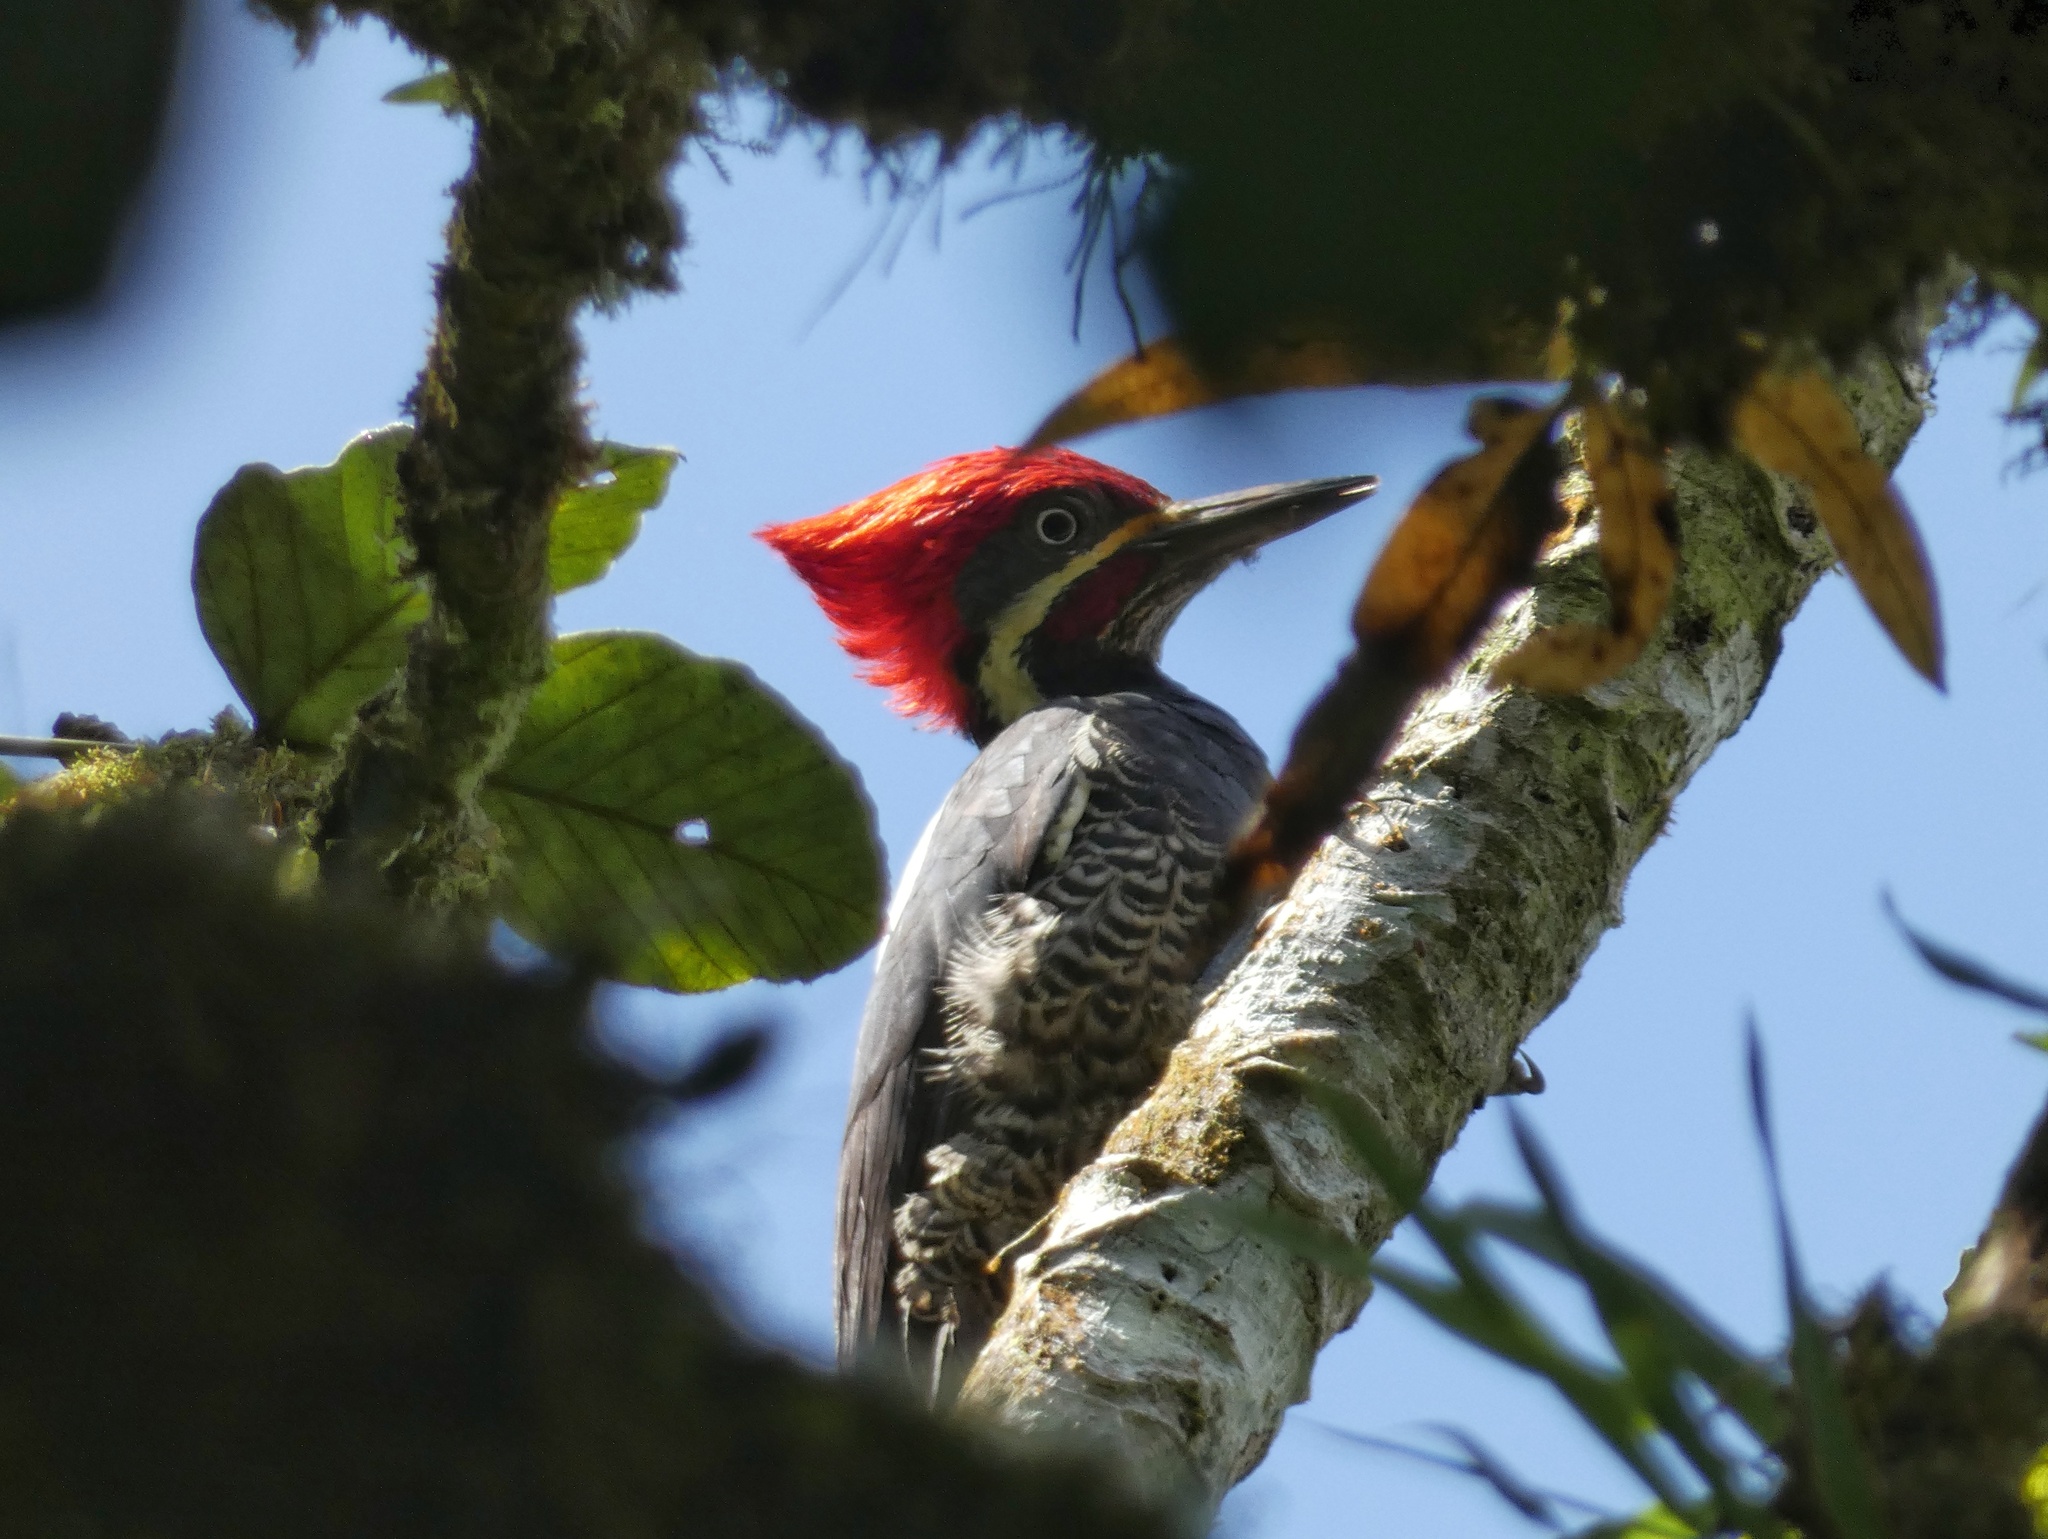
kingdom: Animalia
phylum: Chordata
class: Aves
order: Piciformes
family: Picidae
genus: Dryocopus
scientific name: Dryocopus lineatus
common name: Lineated woodpecker
